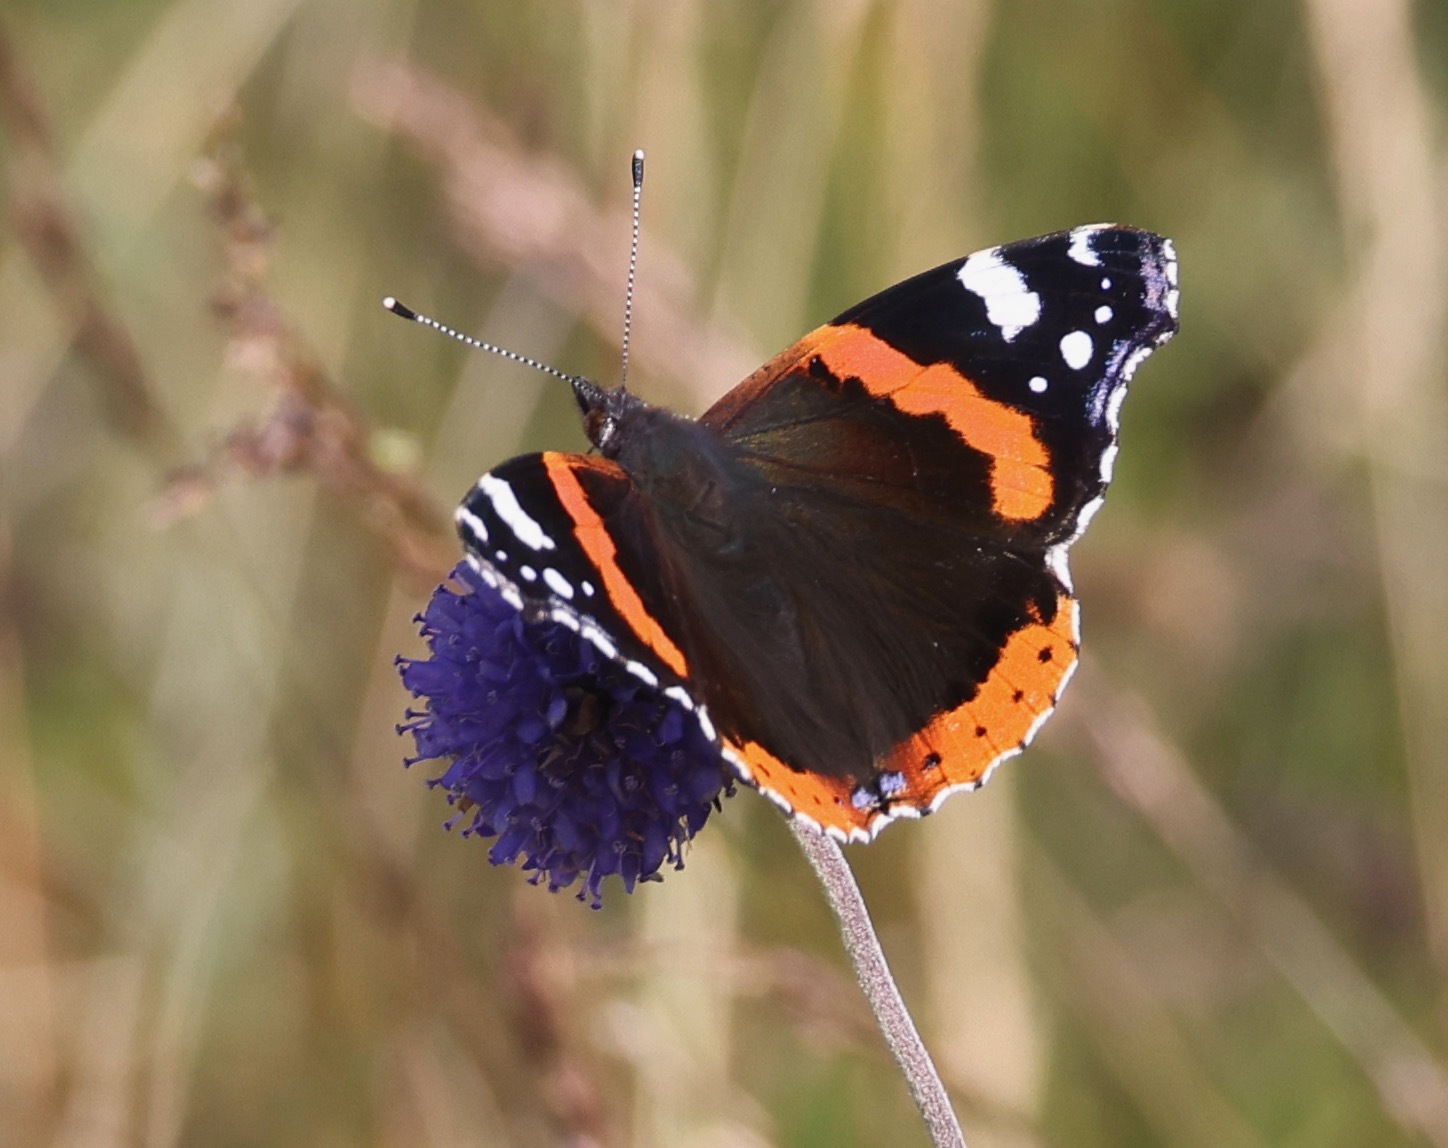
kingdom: Animalia
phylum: Arthropoda
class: Insecta
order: Lepidoptera
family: Nymphalidae
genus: Vanessa
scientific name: Vanessa atalanta
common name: Red admiral
